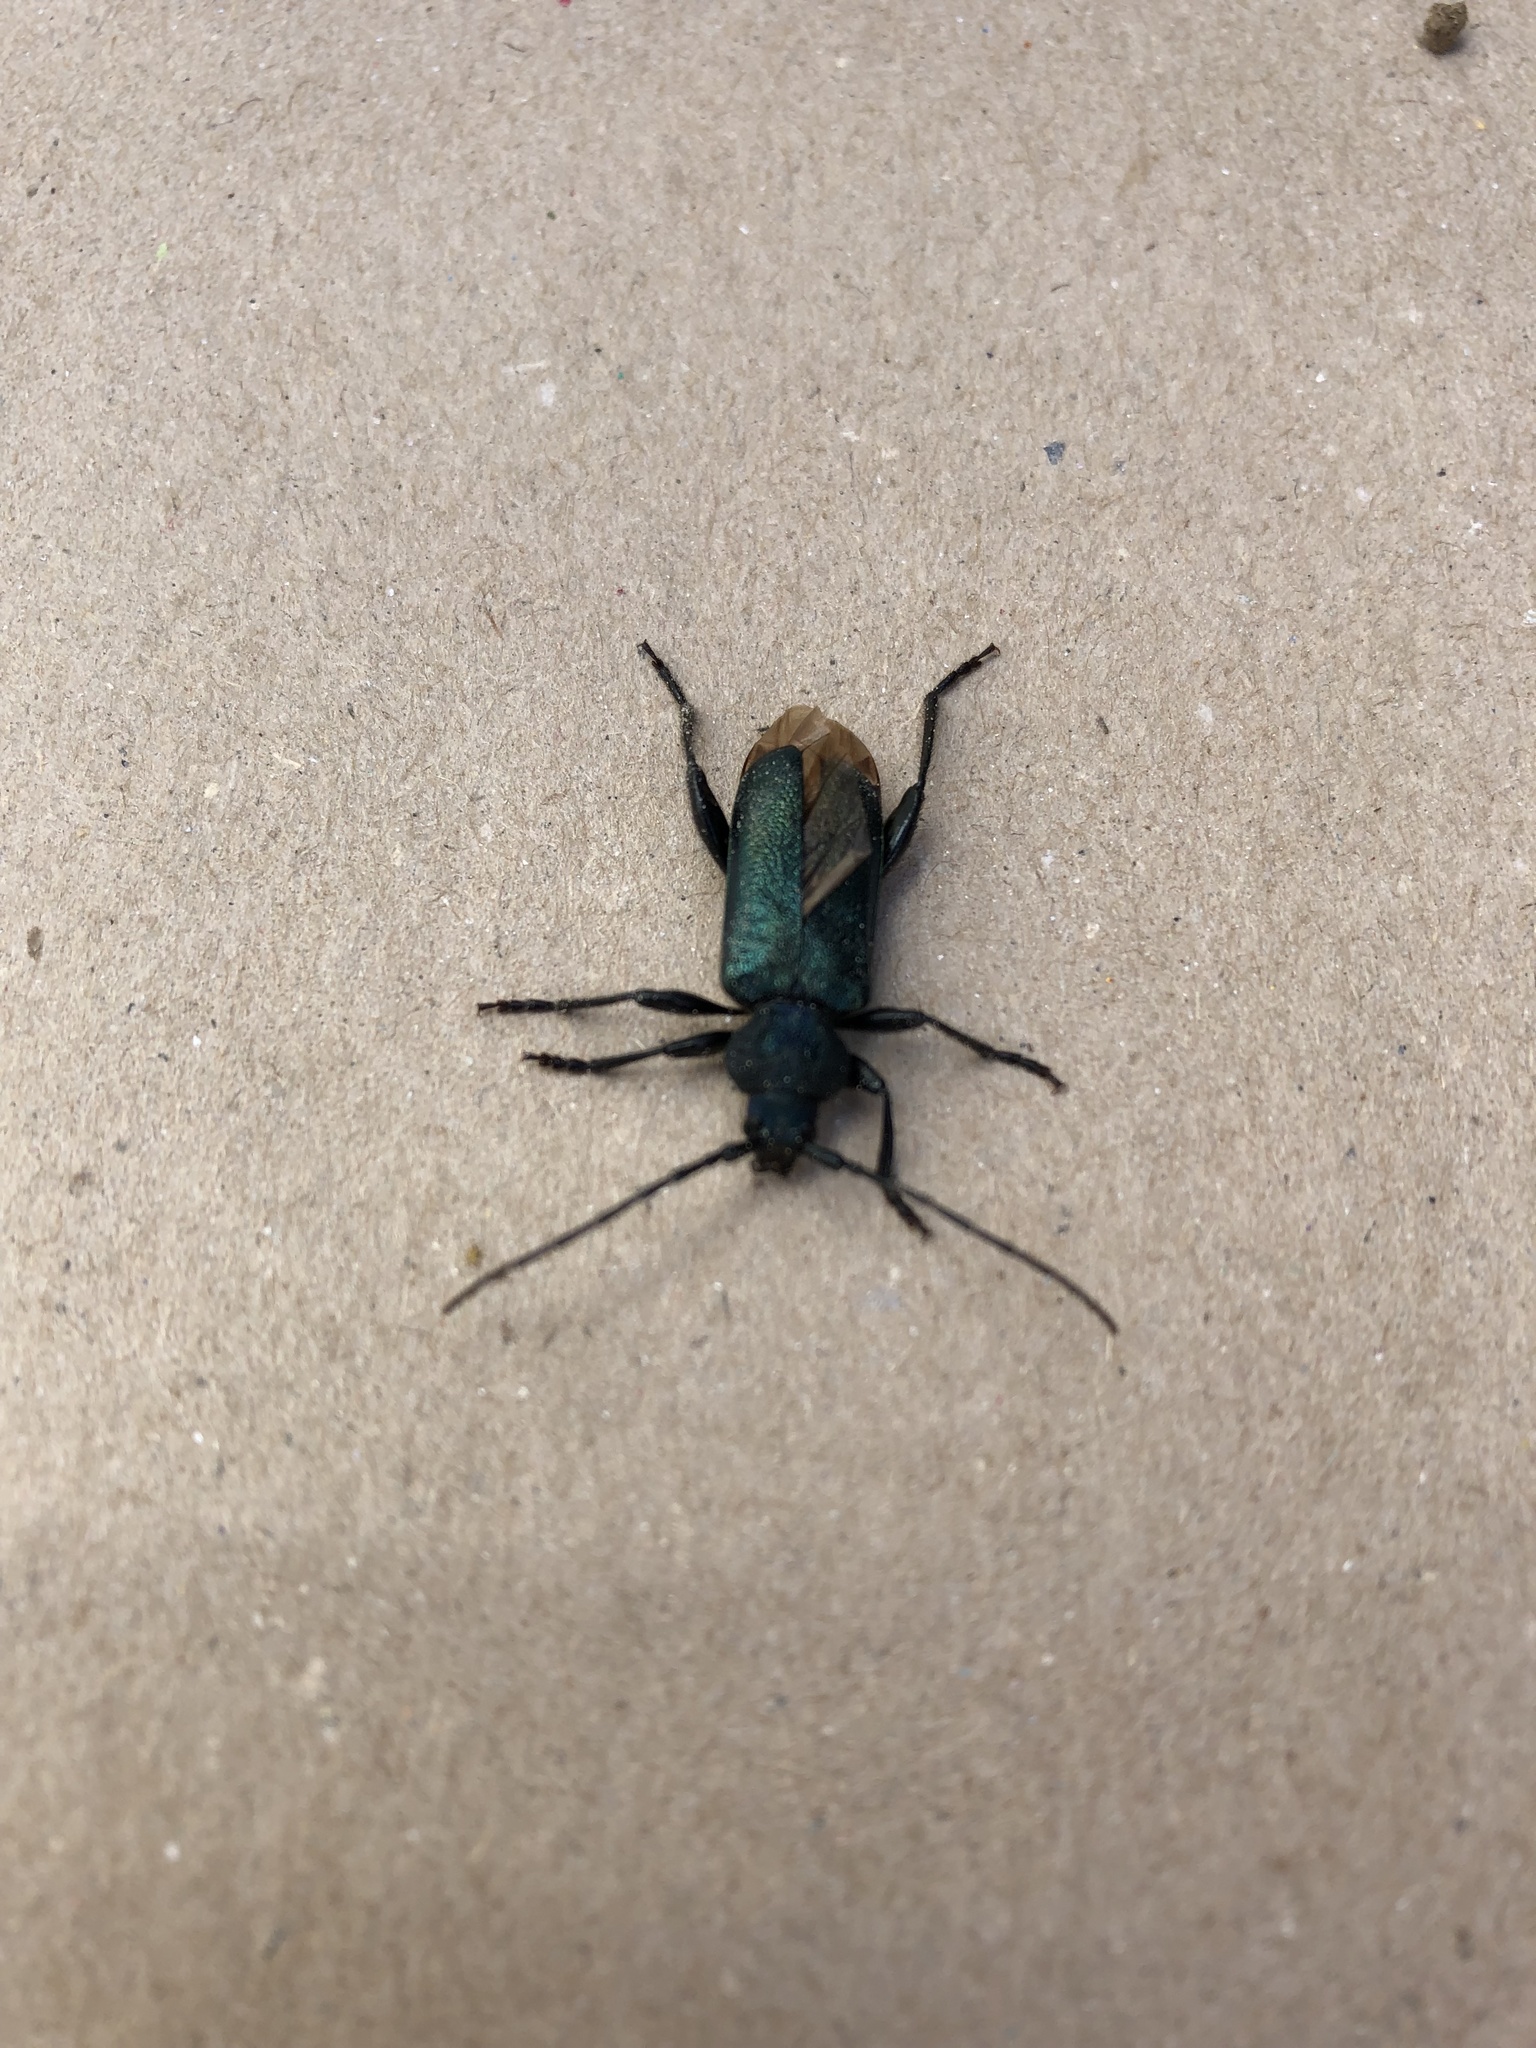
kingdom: Animalia
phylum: Arthropoda
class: Insecta
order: Coleoptera
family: Cerambycidae
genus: Callidium
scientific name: Callidium violaceum
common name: Violet tanbark beetle
